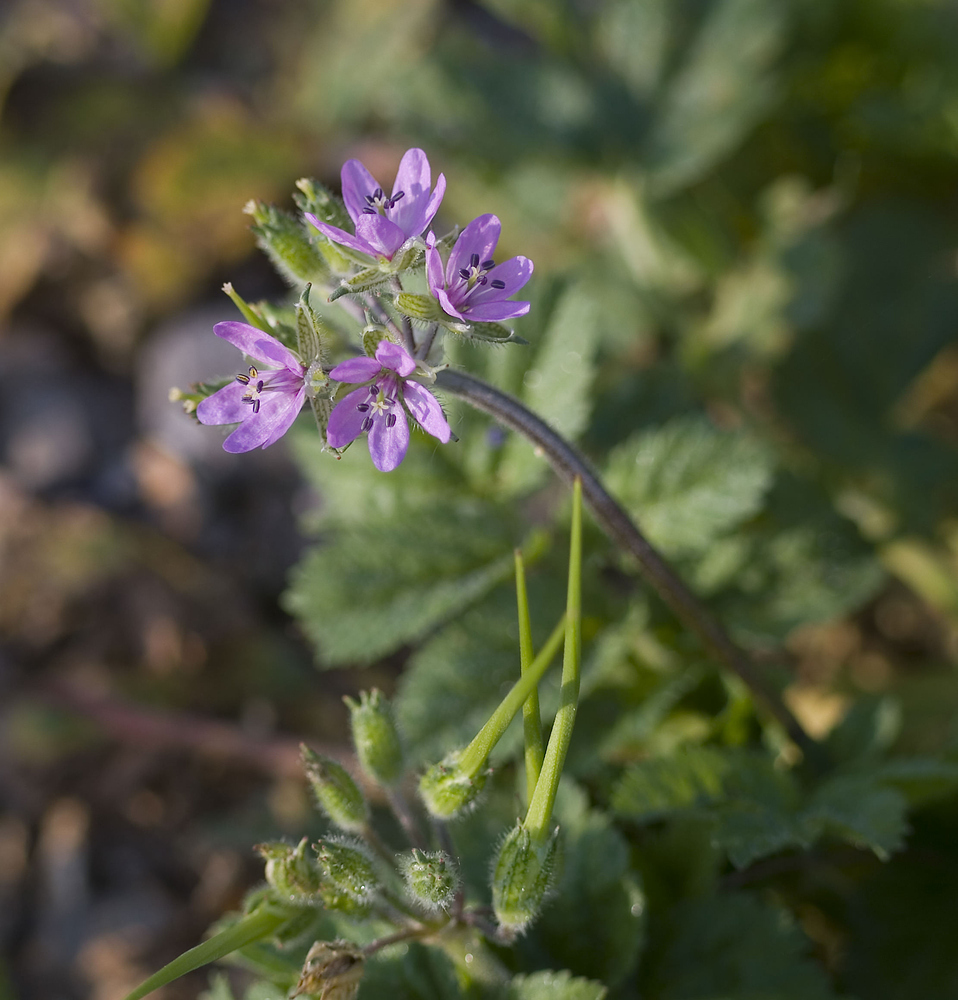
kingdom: Plantae
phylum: Tracheophyta
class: Magnoliopsida
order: Geraniales
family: Geraniaceae
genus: Erodium
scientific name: Erodium moschatum
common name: Musk stork's-bill
